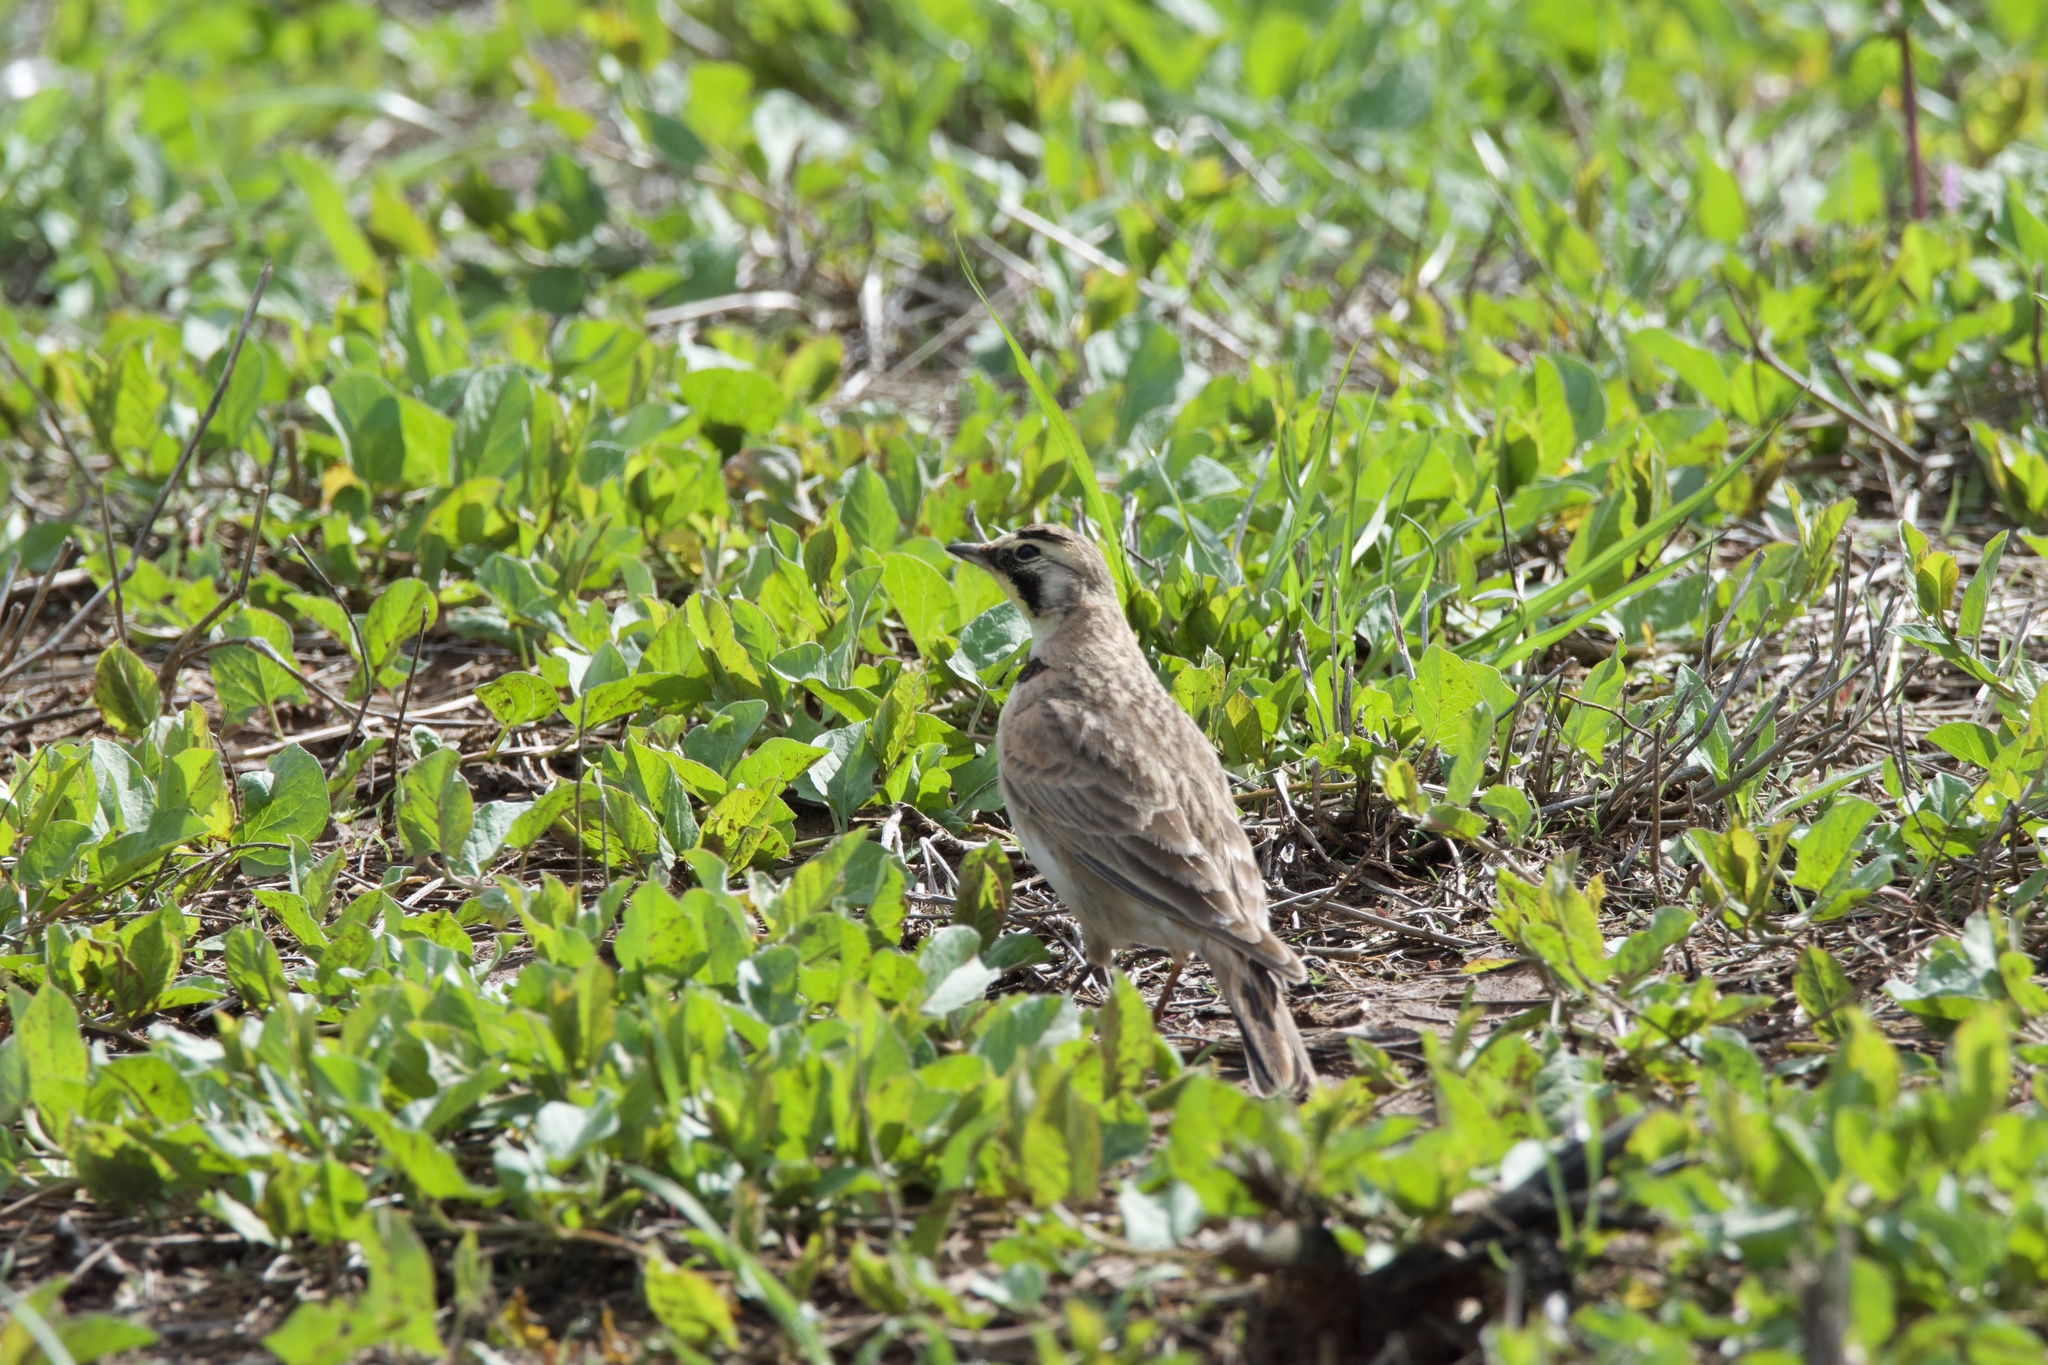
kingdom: Animalia
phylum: Chordata
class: Aves
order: Passeriformes
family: Alaudidae
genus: Eremophila
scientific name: Eremophila alpestris
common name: Horned lark
